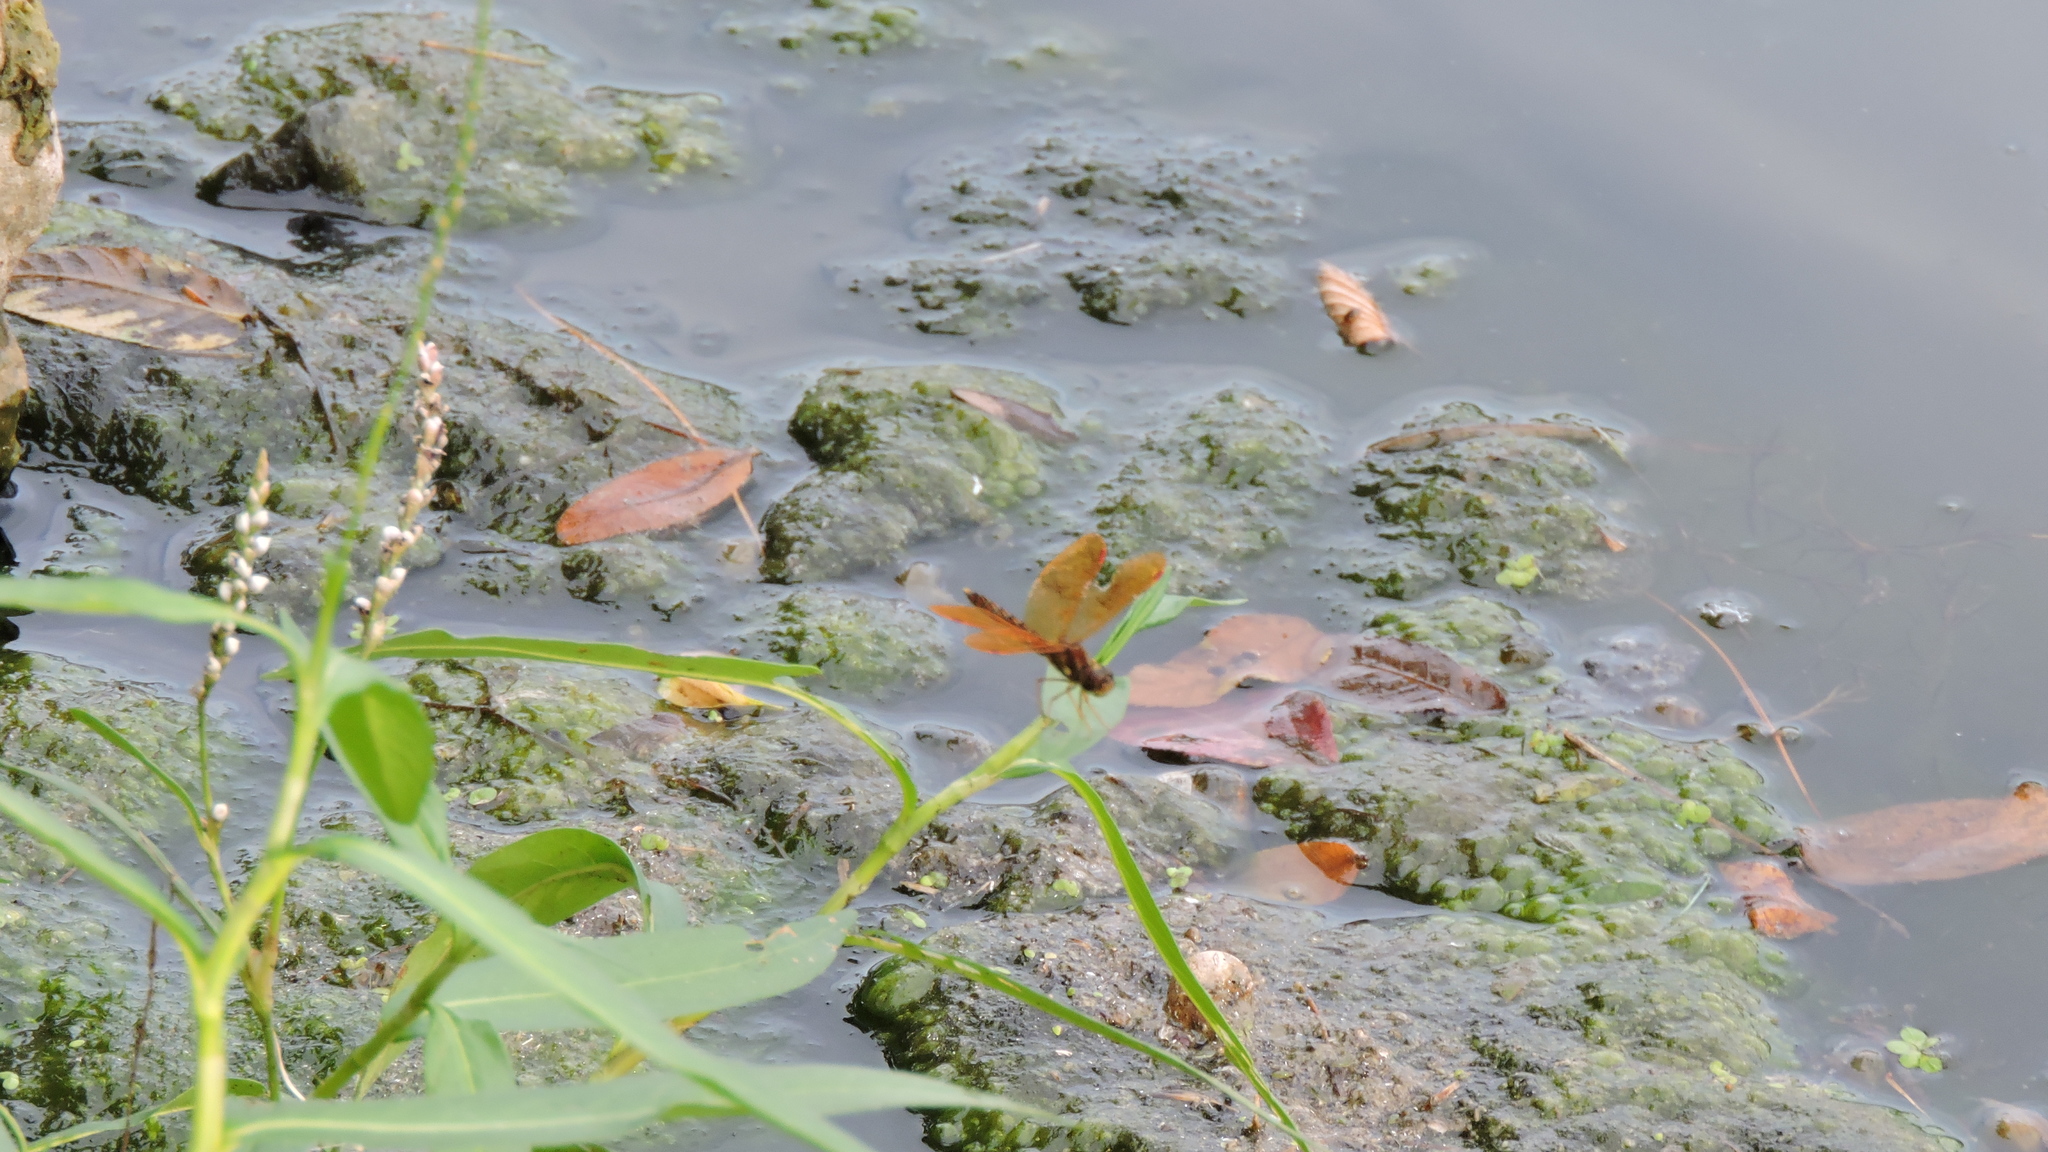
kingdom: Animalia
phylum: Arthropoda
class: Insecta
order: Odonata
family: Libellulidae
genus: Perithemis
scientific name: Perithemis tenera
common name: Eastern amberwing
